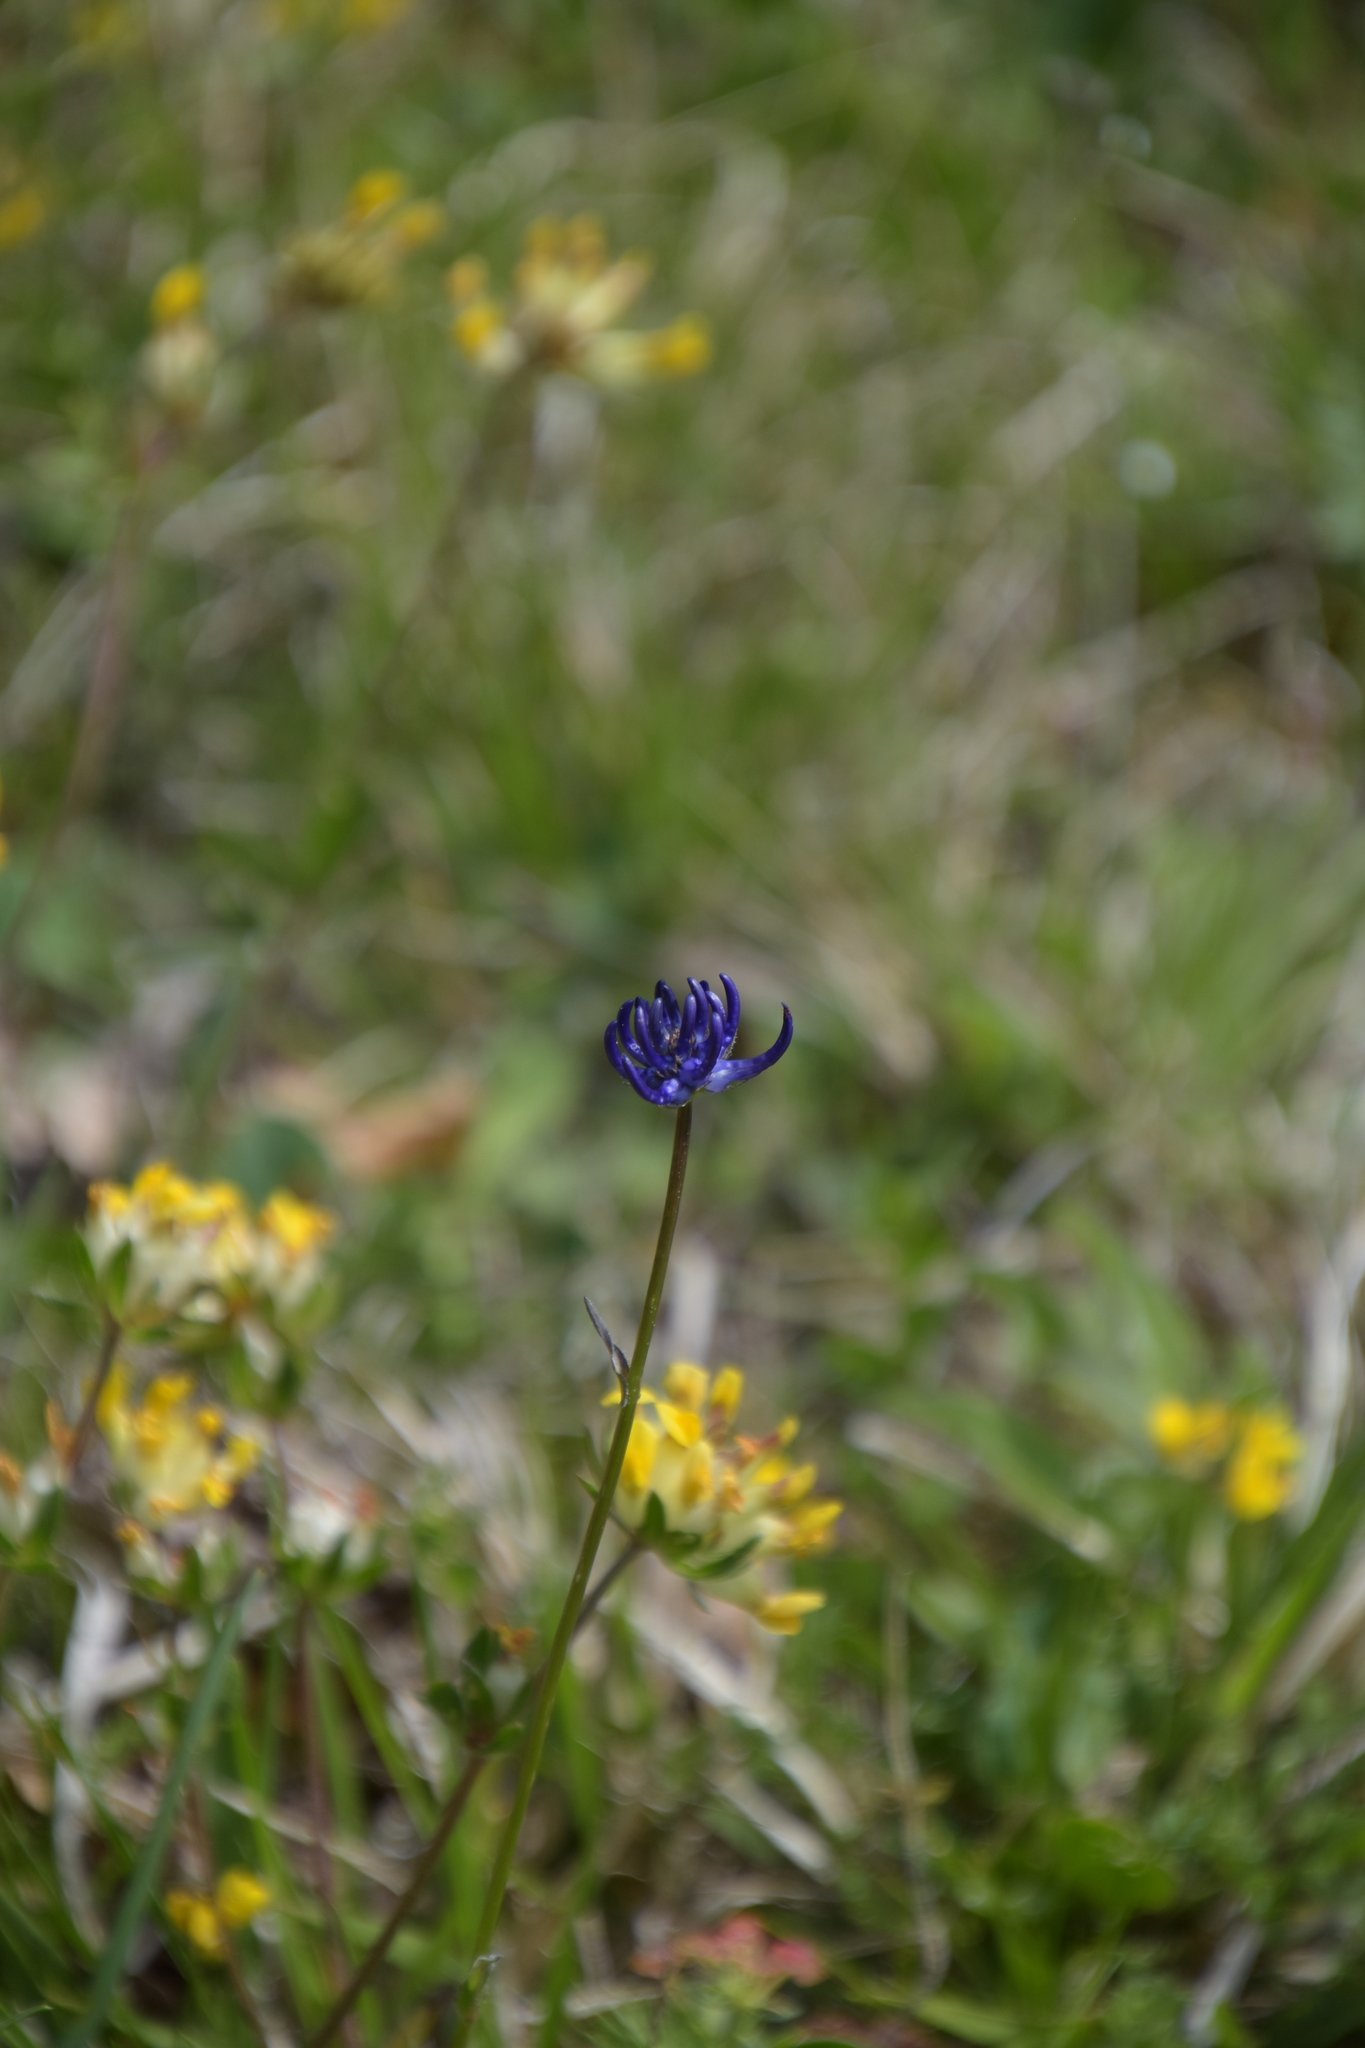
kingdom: Plantae
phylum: Tracheophyta
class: Magnoliopsida
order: Asterales
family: Campanulaceae
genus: Phyteuma
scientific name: Phyteuma orbiculare
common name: Round-headed rampion
